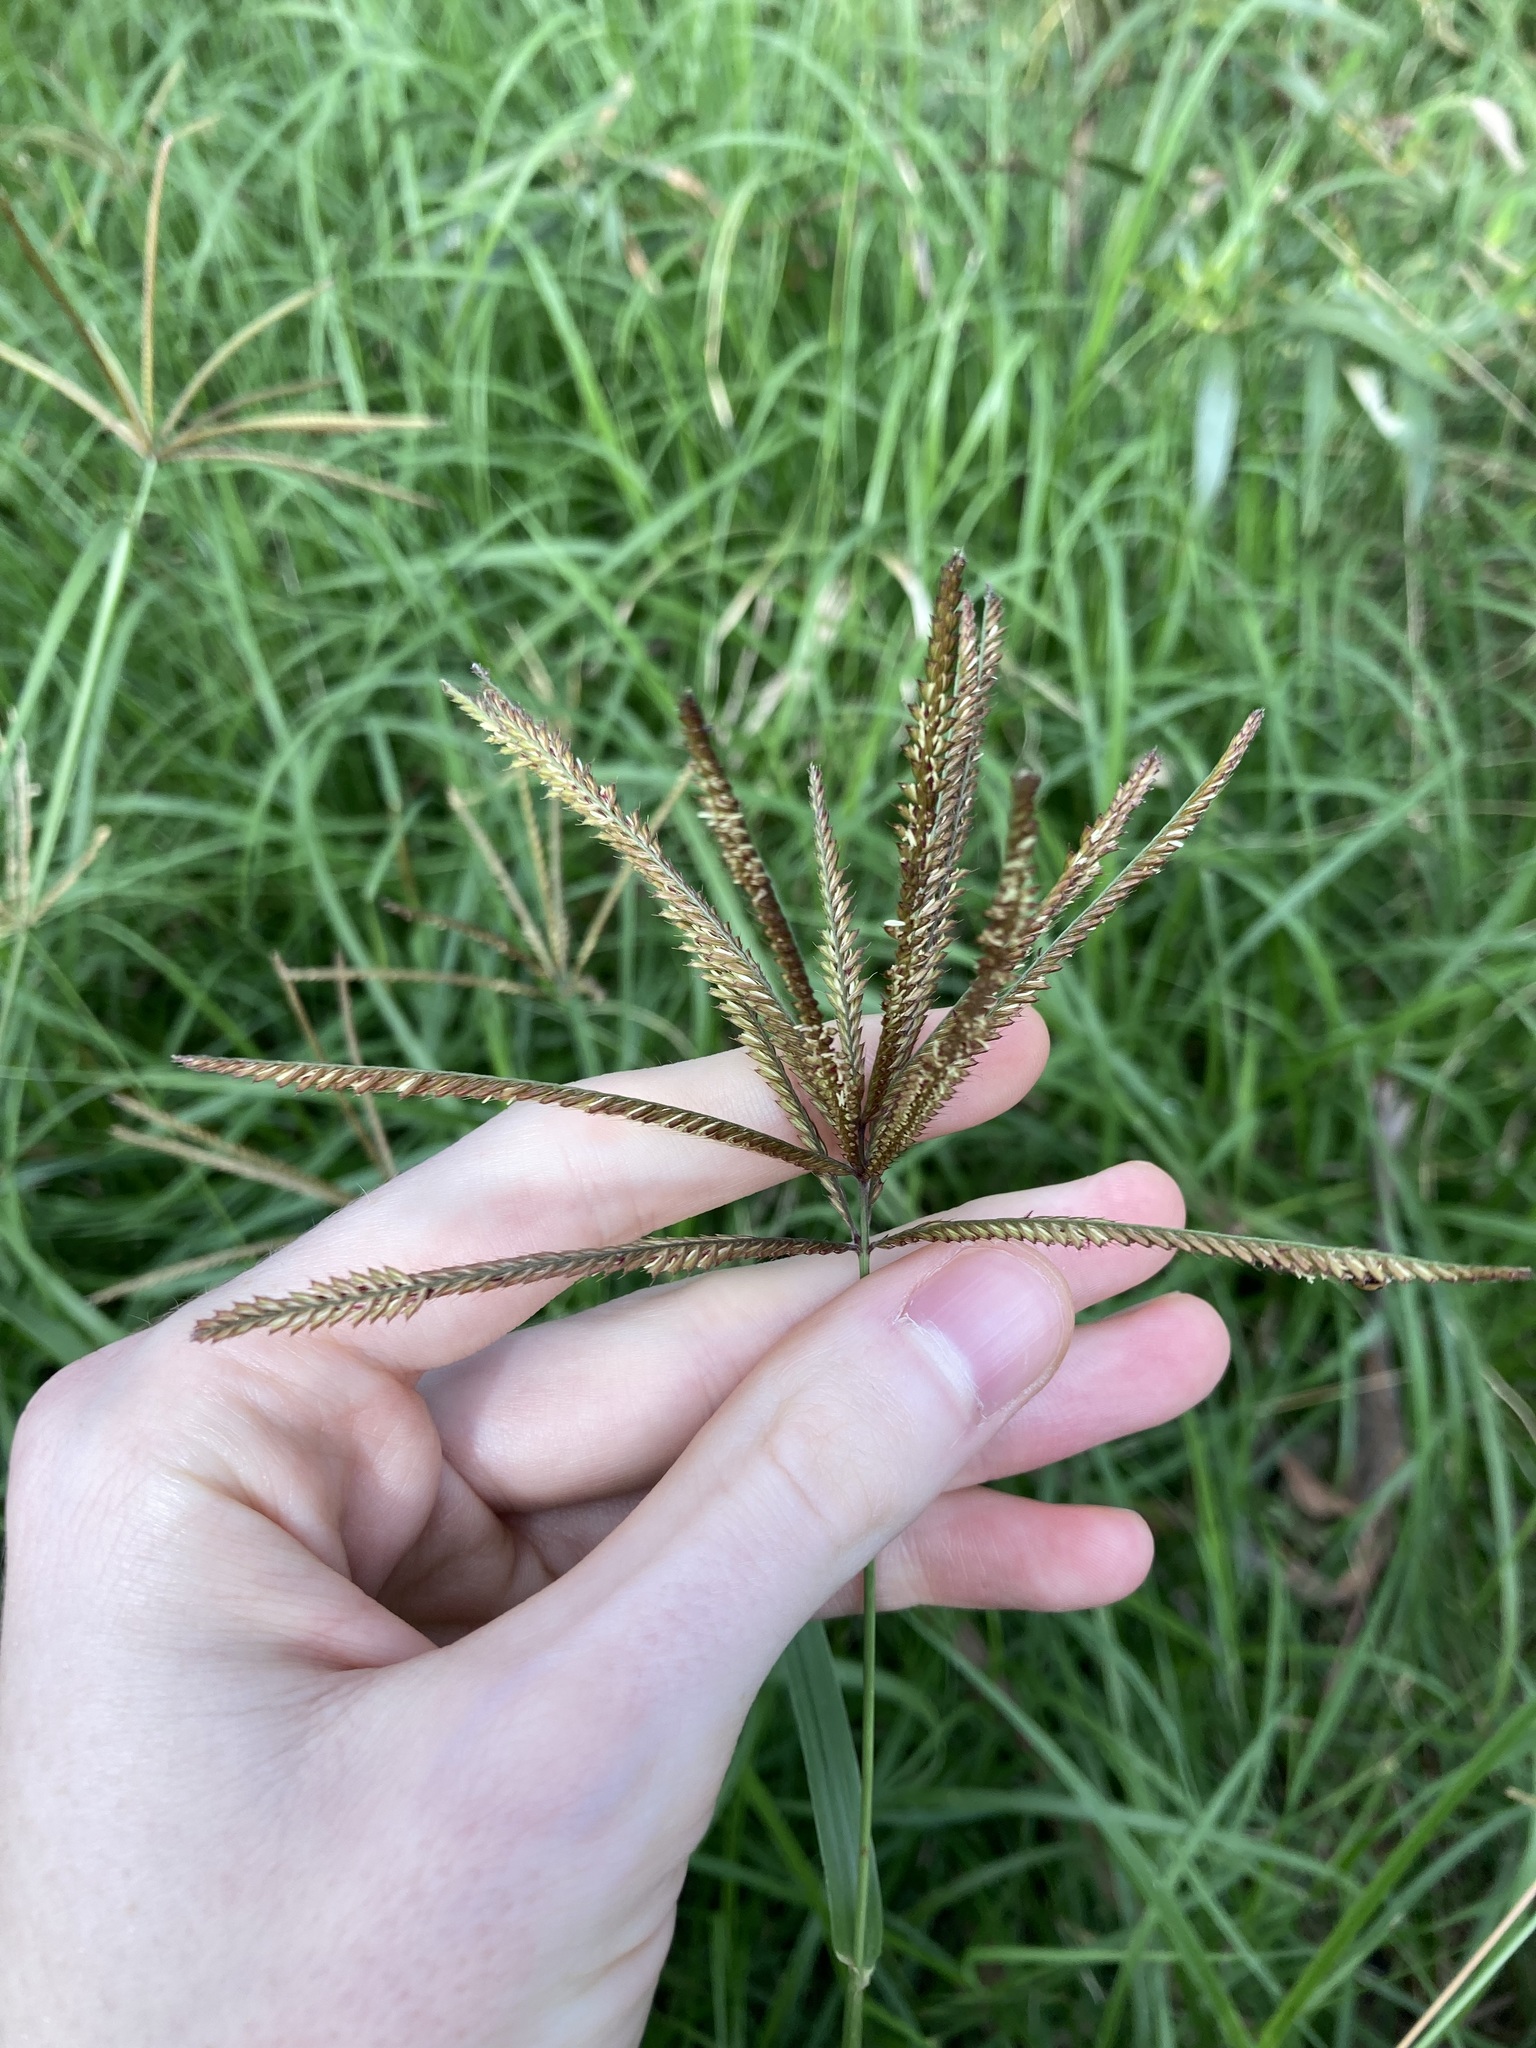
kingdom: Plantae
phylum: Tracheophyta
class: Liliopsida
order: Poales
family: Poaceae
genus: Chloris
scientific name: Chloris gayana
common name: Rhodes grass
